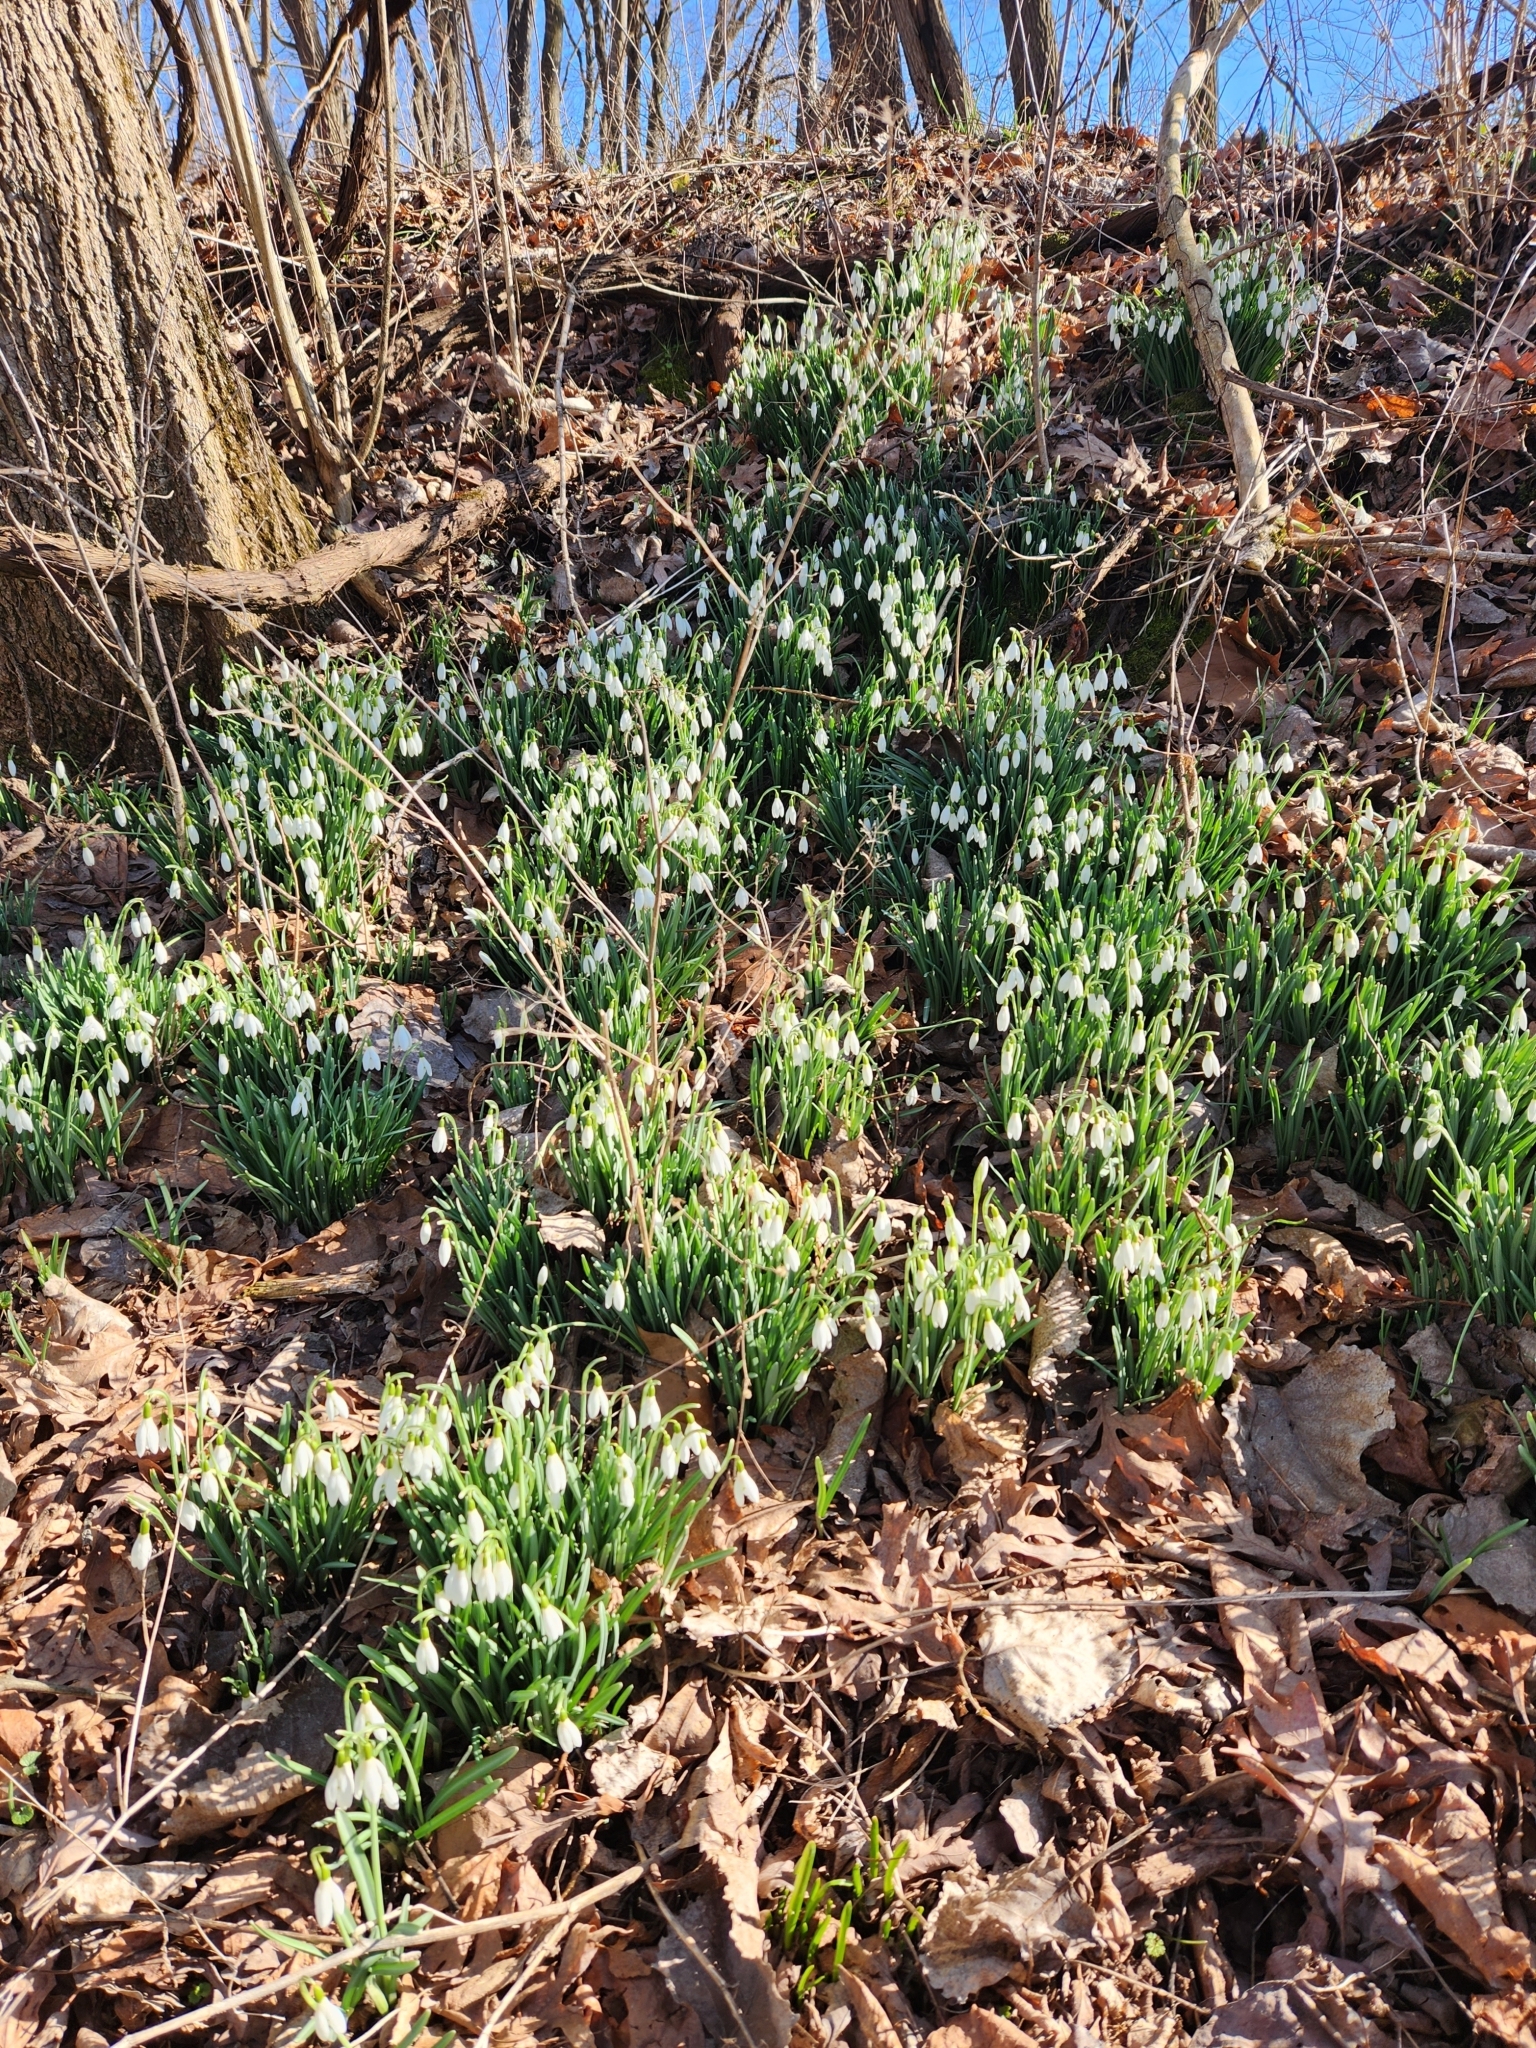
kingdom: Plantae
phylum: Tracheophyta
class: Liliopsida
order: Asparagales
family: Amaryllidaceae
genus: Galanthus
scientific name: Galanthus nivalis
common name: Snowdrop
